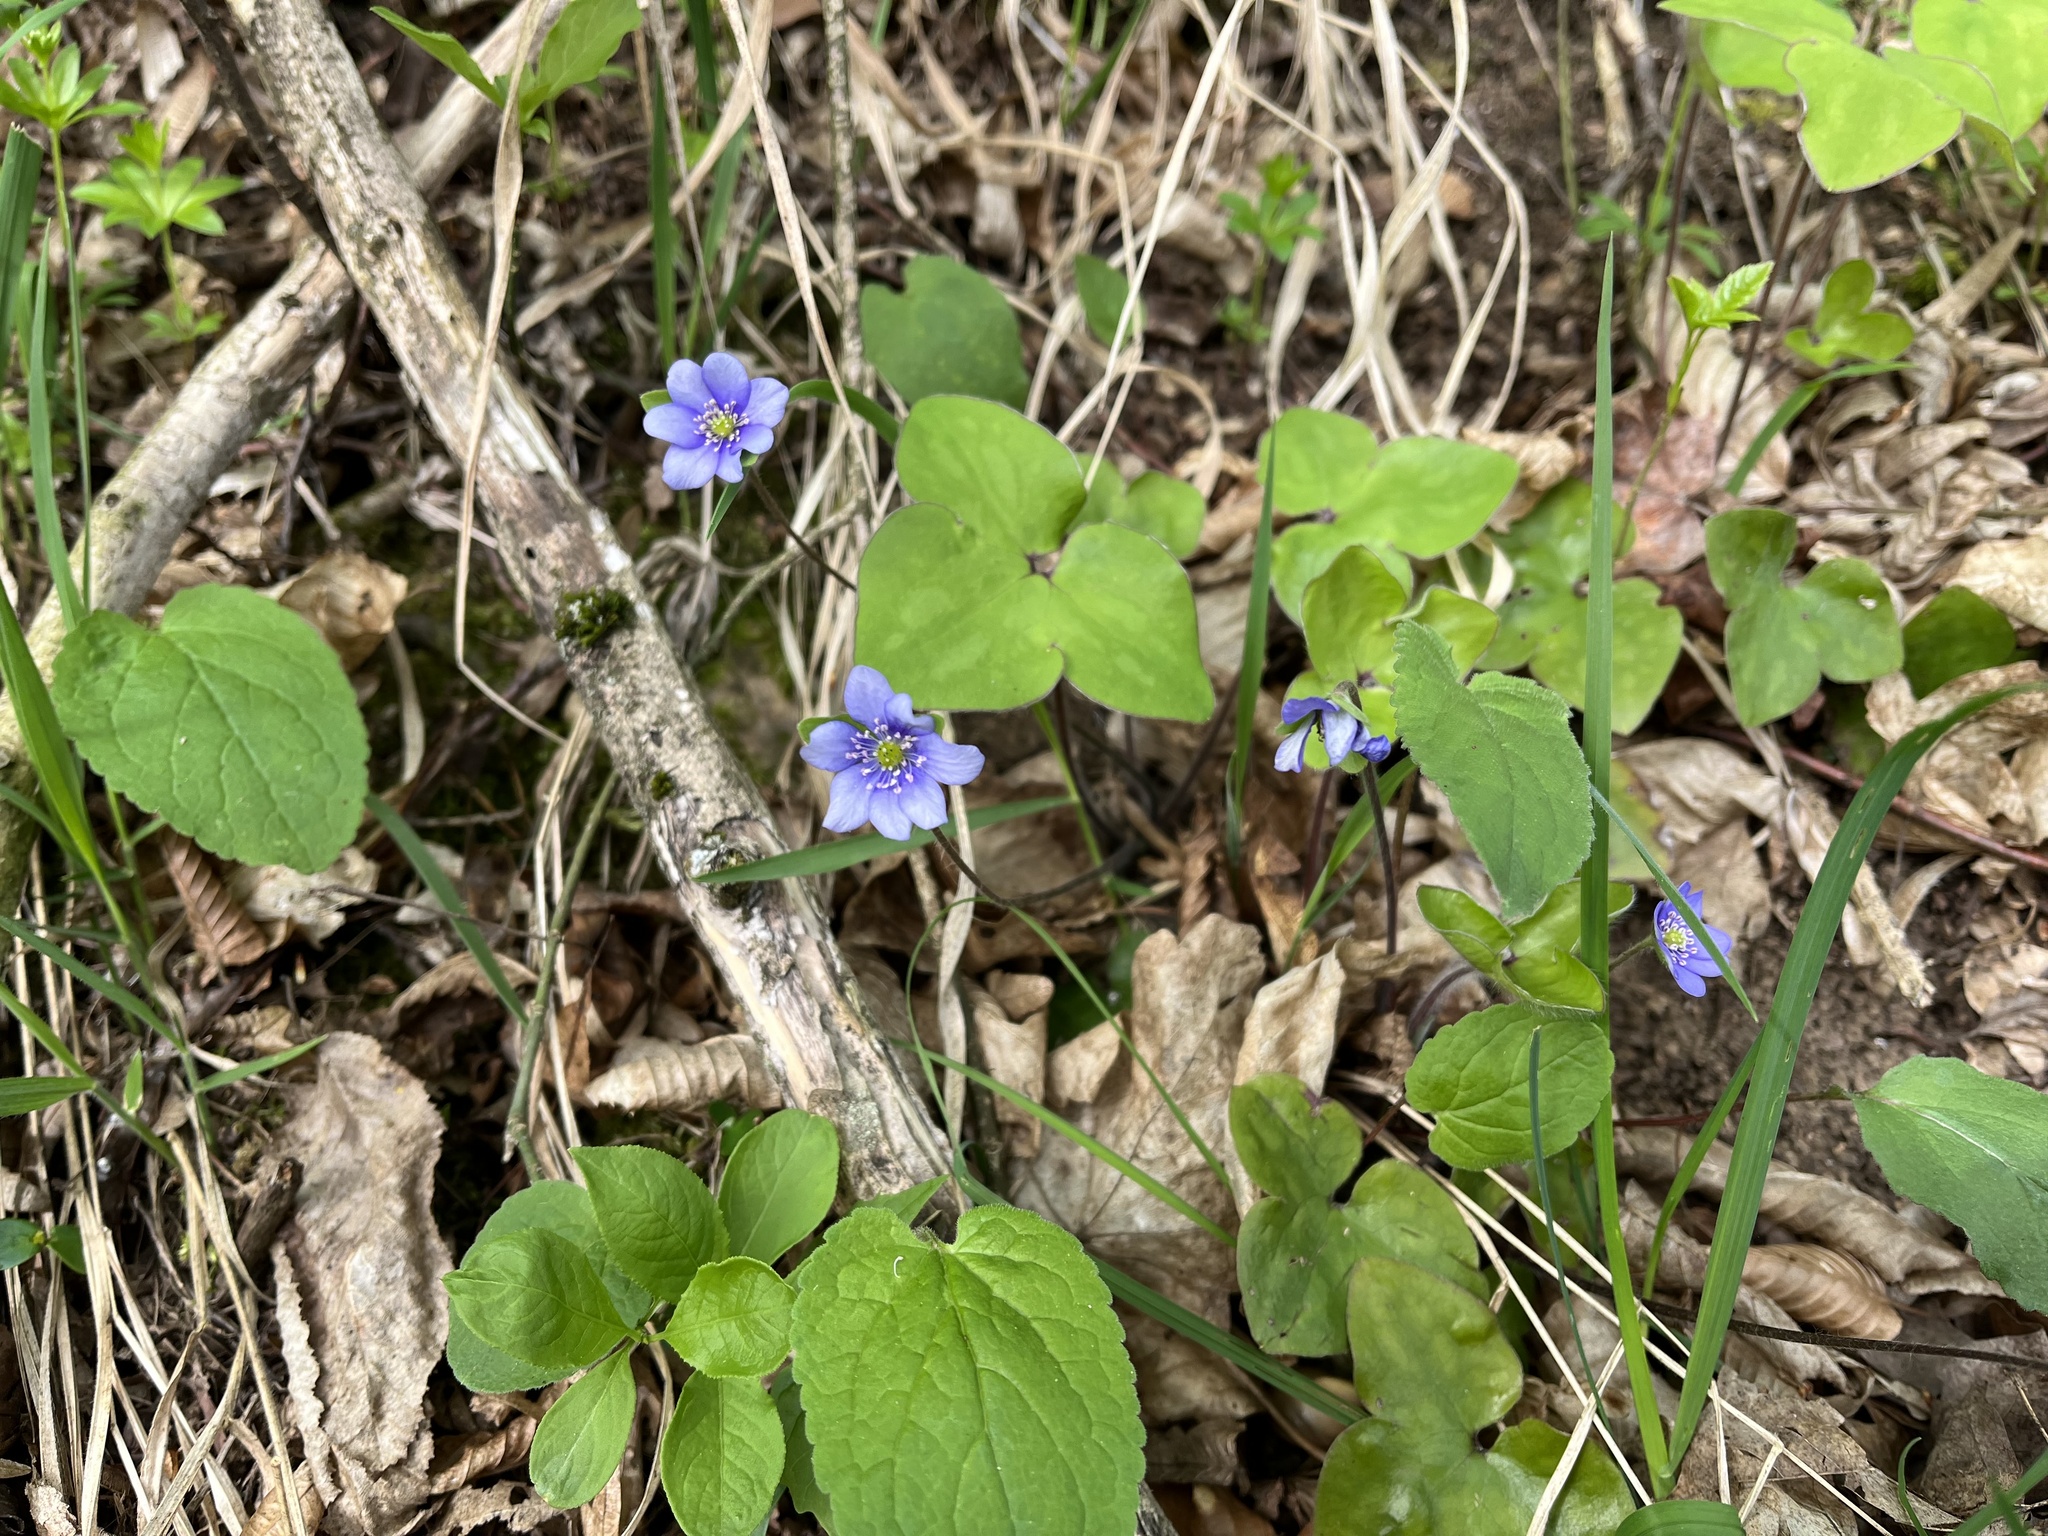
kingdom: Plantae
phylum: Tracheophyta
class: Magnoliopsida
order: Ranunculales
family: Ranunculaceae
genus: Hepatica
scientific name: Hepatica nobilis
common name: Liverleaf
